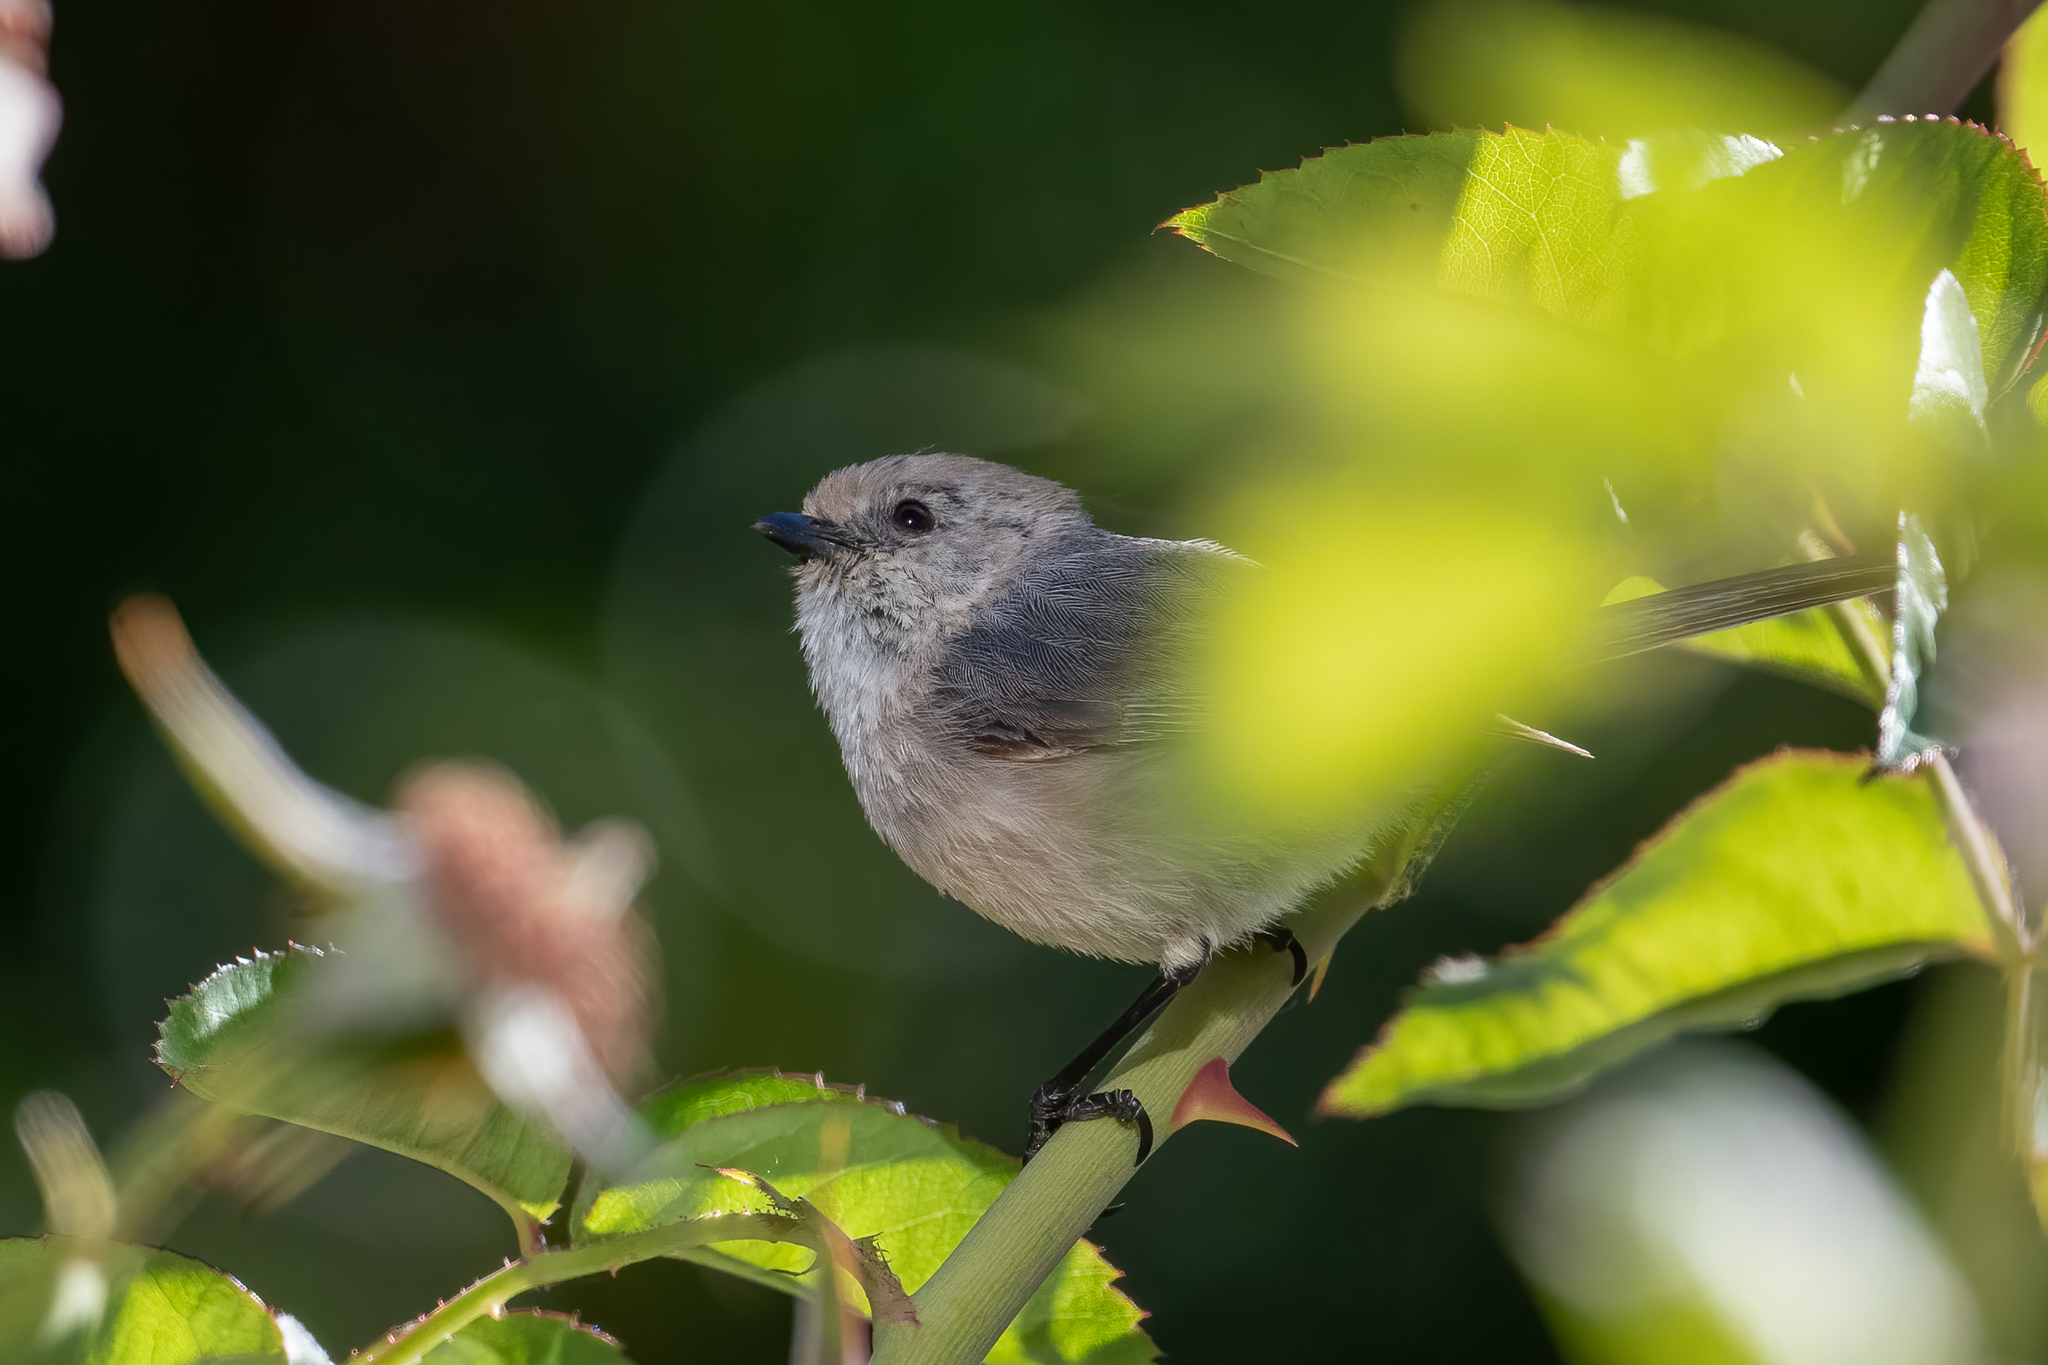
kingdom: Animalia
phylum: Chordata
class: Aves
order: Passeriformes
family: Aegithalidae
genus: Psaltriparus
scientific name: Psaltriparus minimus
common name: American bushtit
